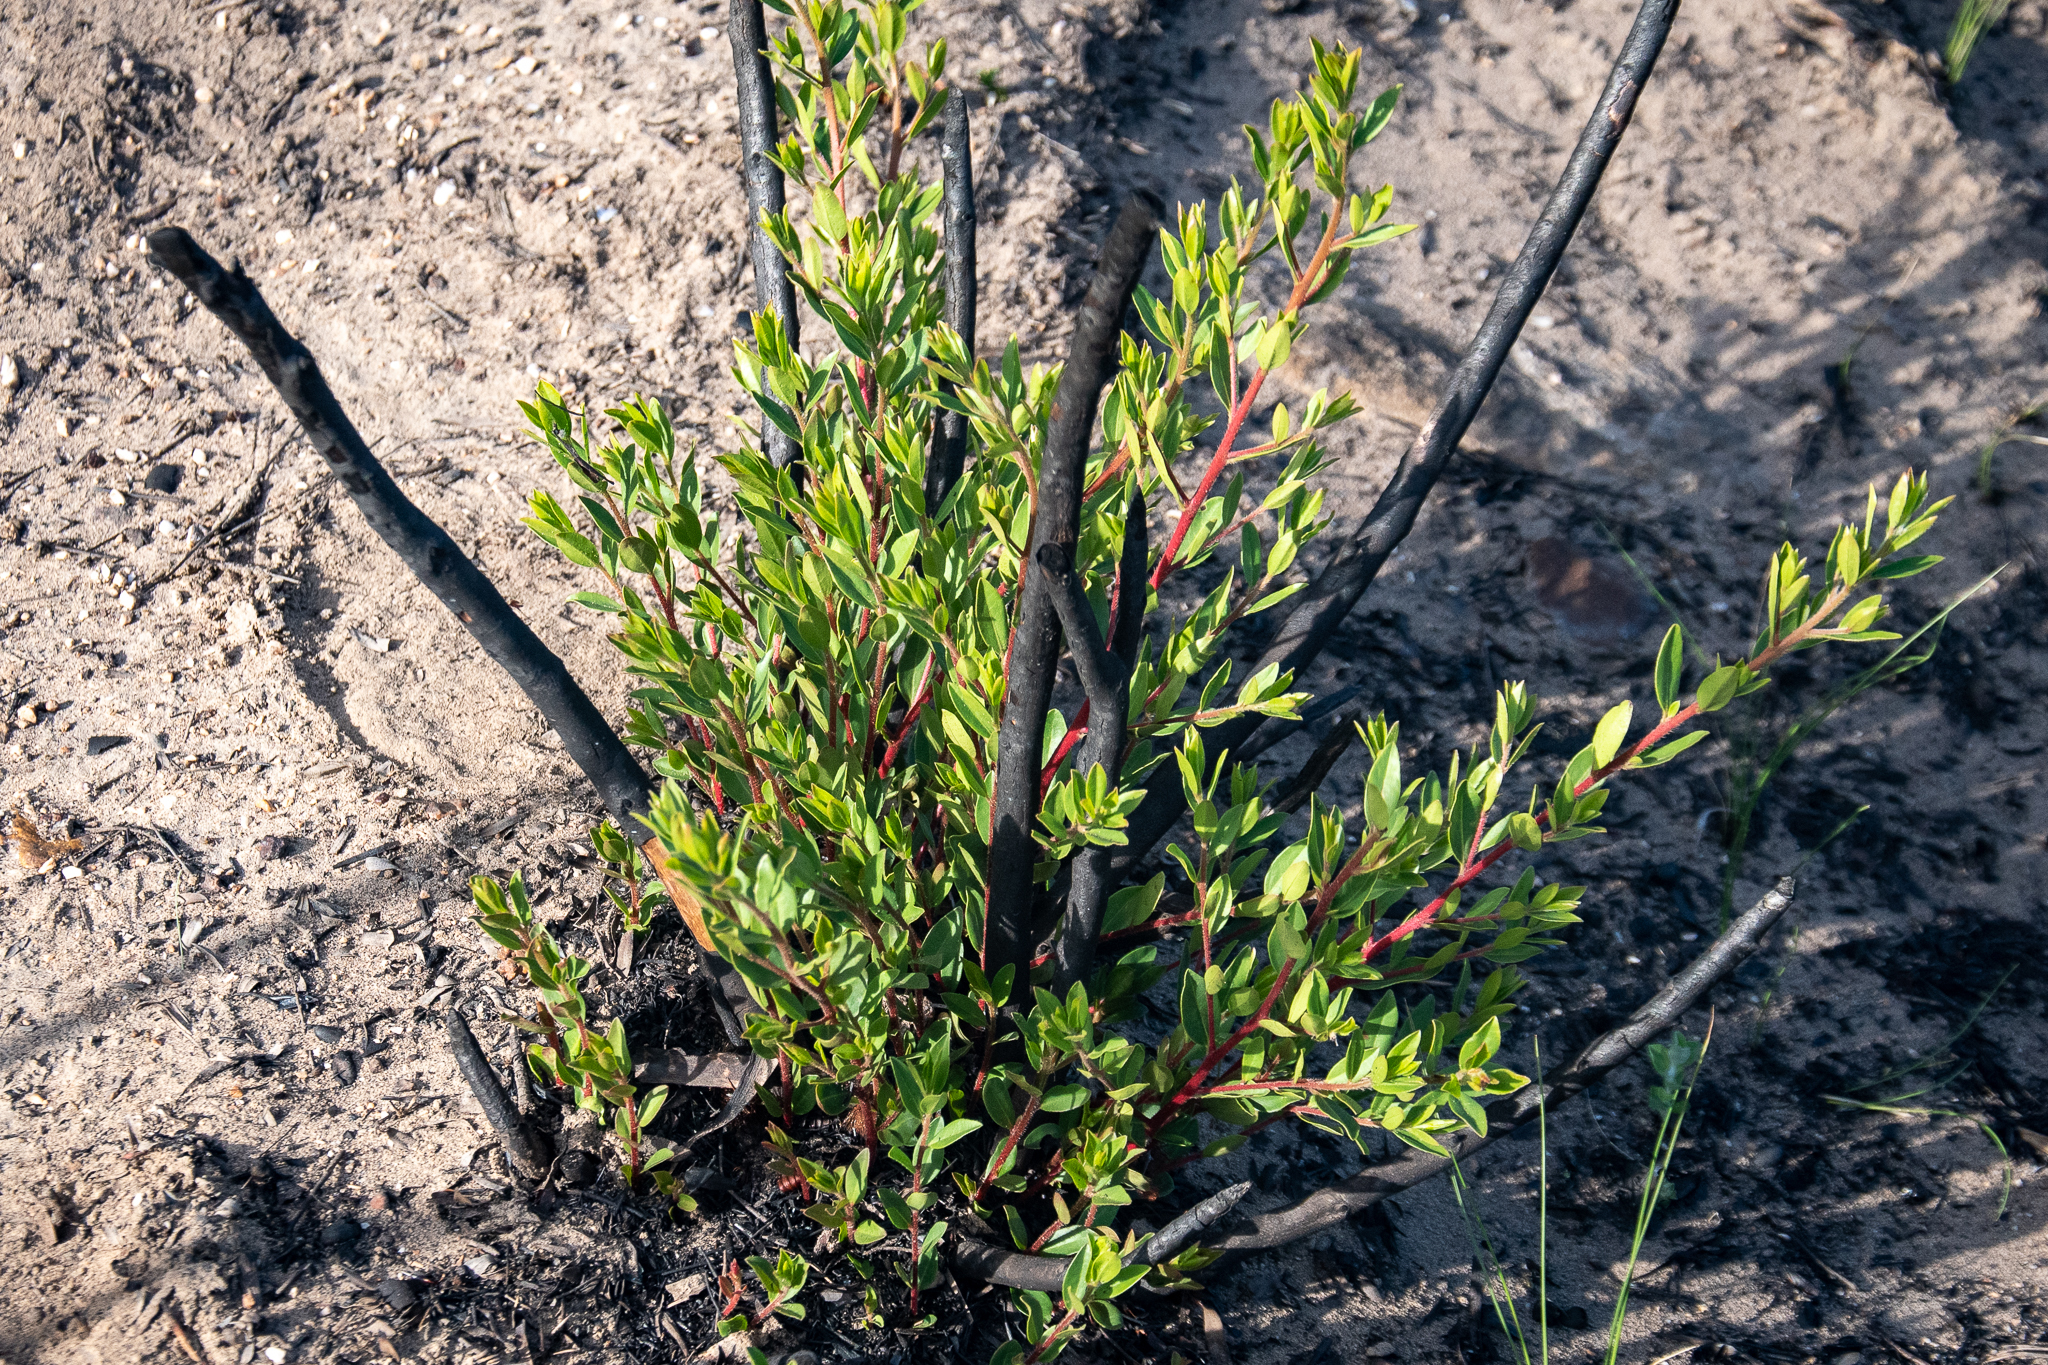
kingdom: Plantae
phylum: Tracheophyta
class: Magnoliopsida
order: Ericales
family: Ebenaceae
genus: Diospyros
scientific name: Diospyros glabra
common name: Fynbos star apple
